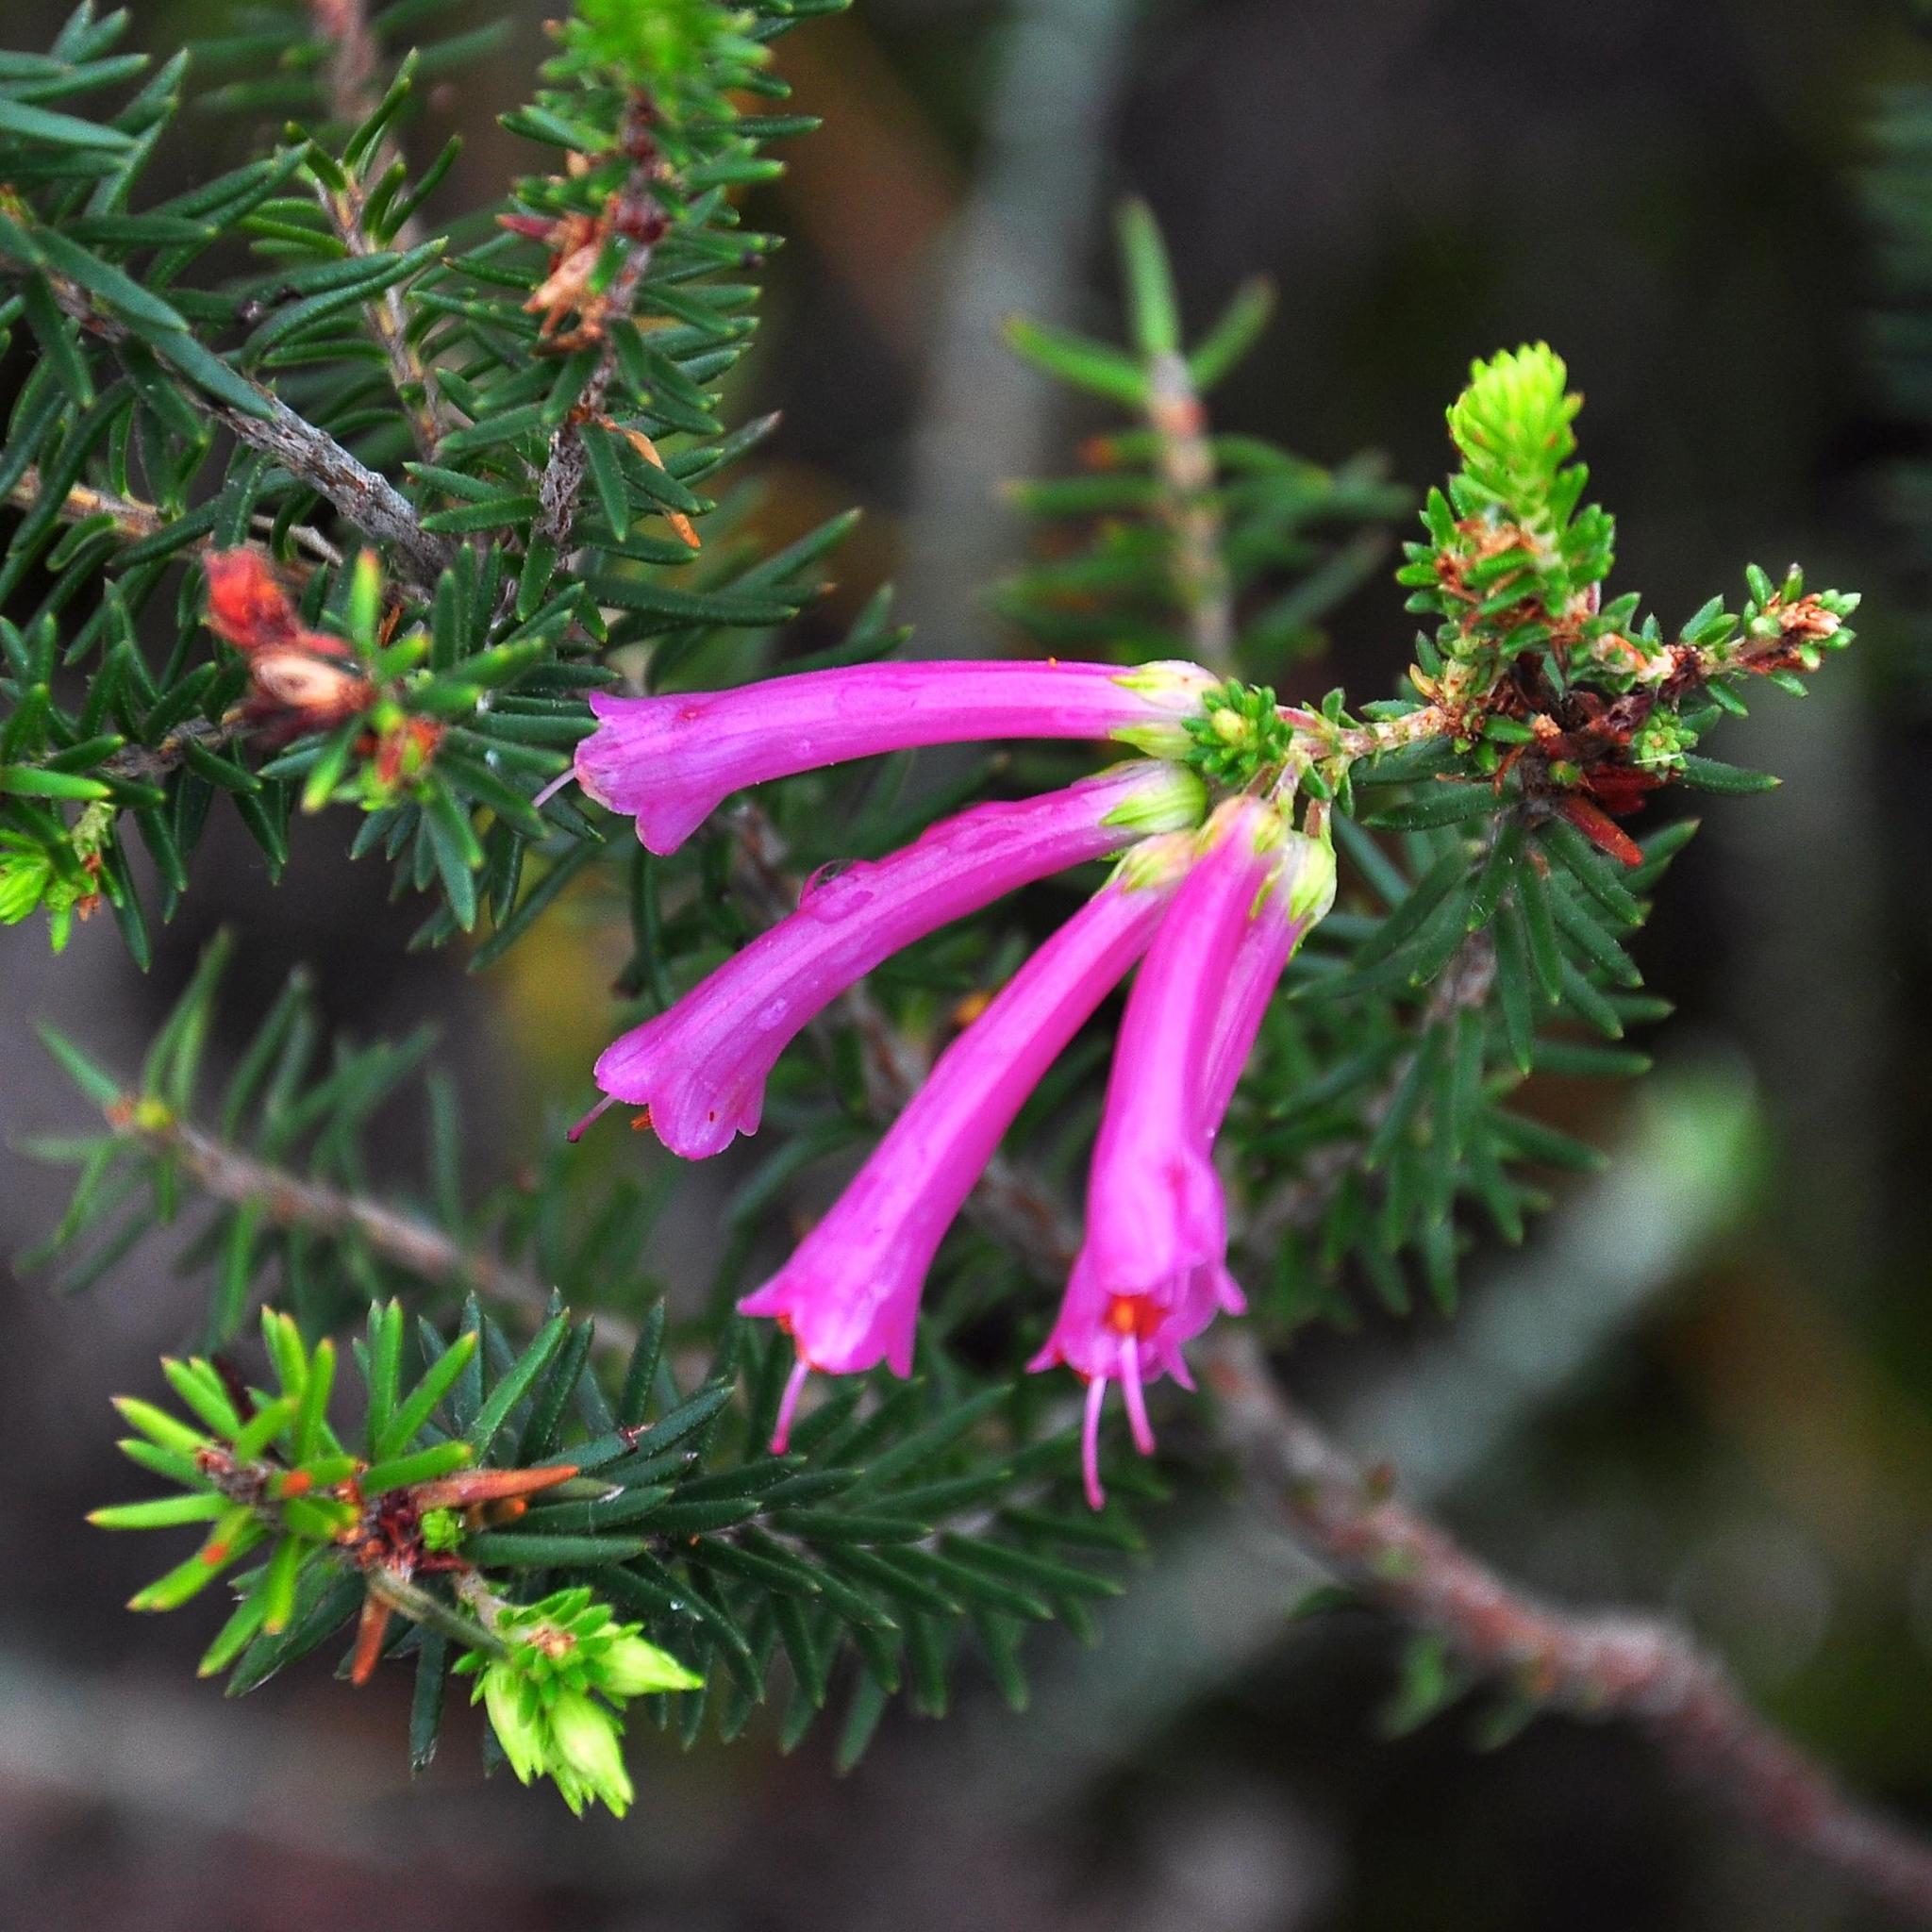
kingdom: Plantae
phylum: Tracheophyta
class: Magnoliopsida
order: Ericales
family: Ericaceae
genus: Erica
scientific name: Erica abietina
